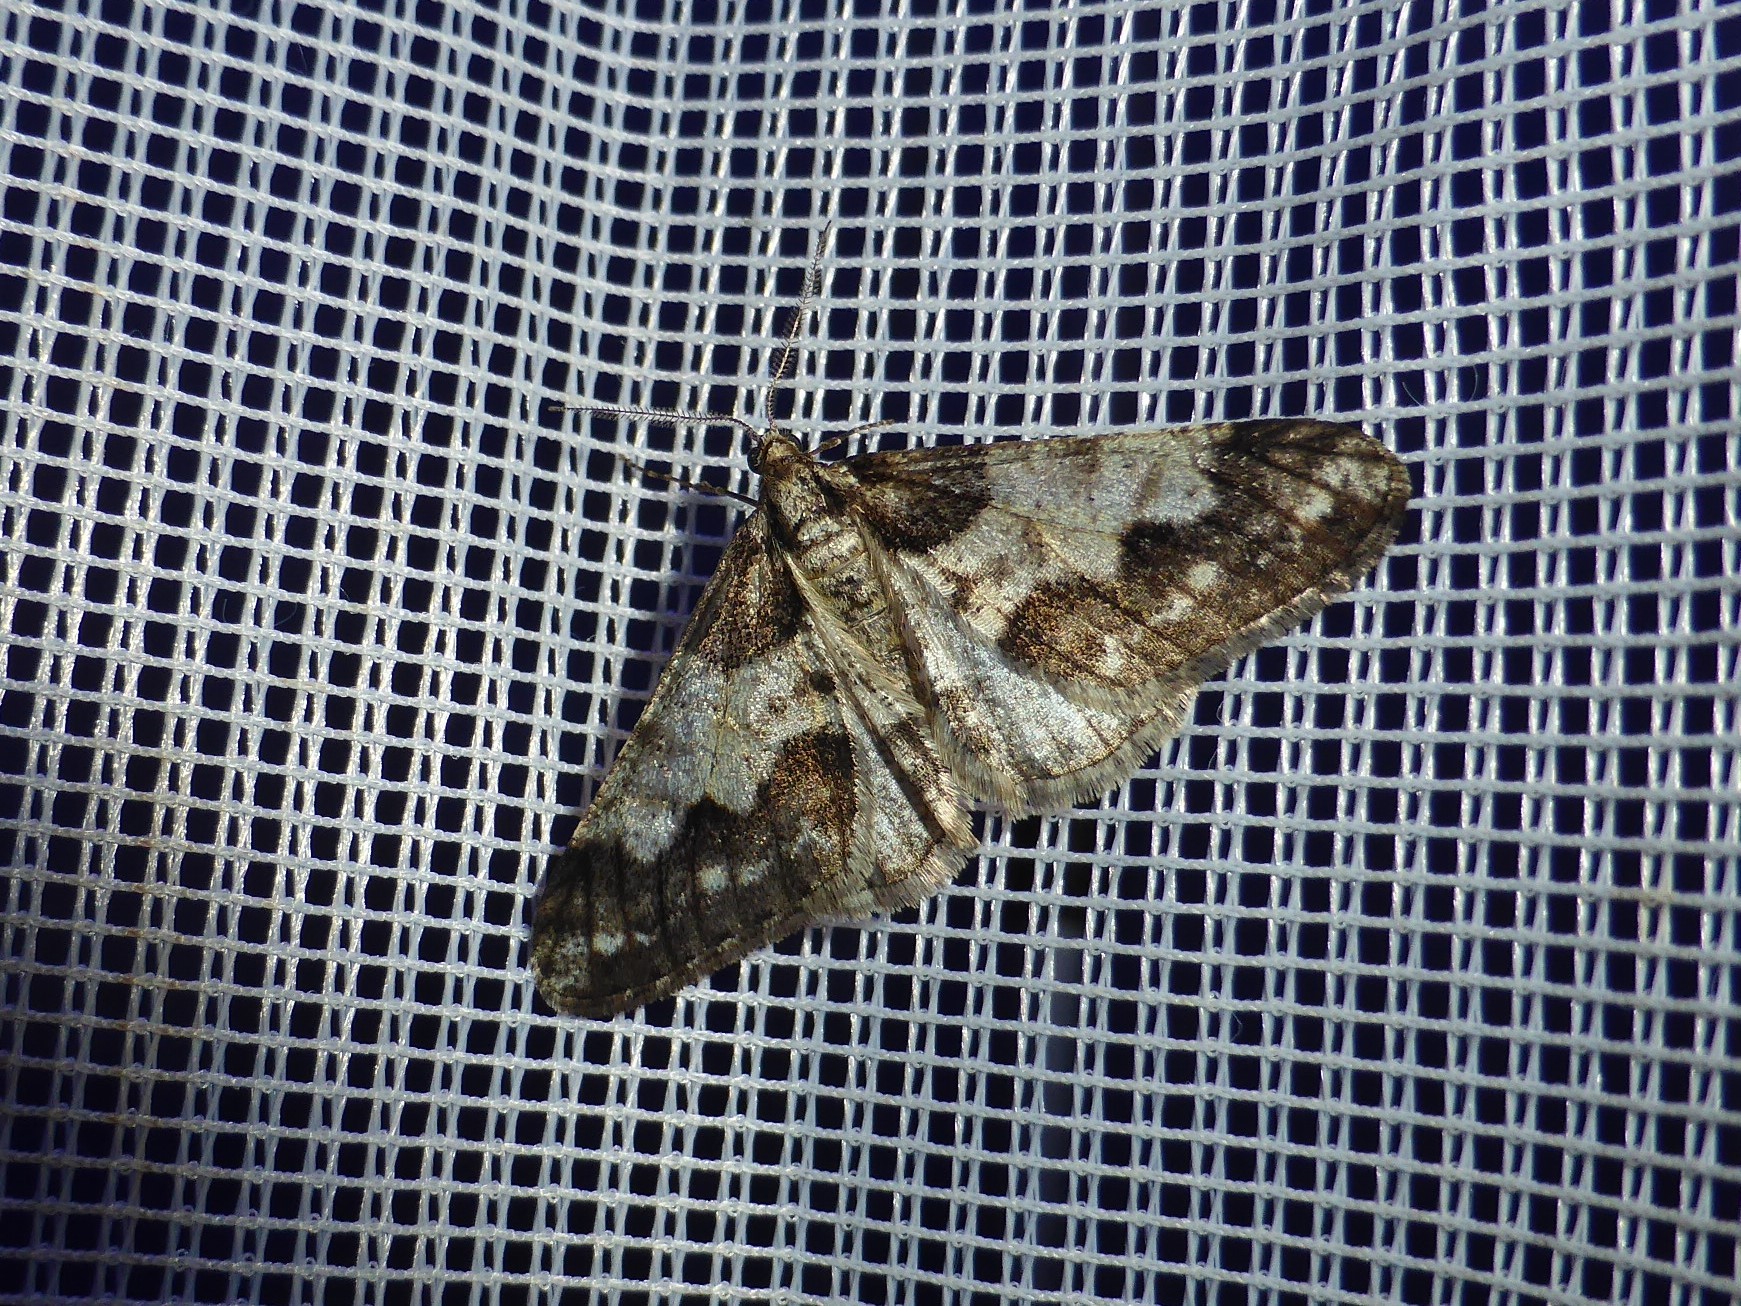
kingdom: Animalia
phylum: Arthropoda
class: Insecta
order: Lepidoptera
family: Geometridae
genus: Agriopis
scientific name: Agriopis leucophaearia
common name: Spring usher
